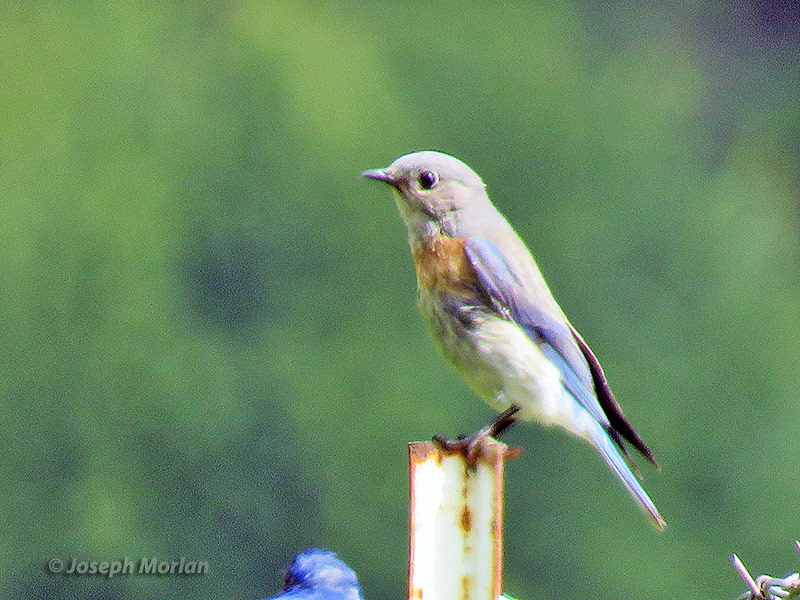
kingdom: Animalia
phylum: Chordata
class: Aves
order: Passeriformes
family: Turdidae
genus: Sialia
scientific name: Sialia mexicana
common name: Western bluebird
